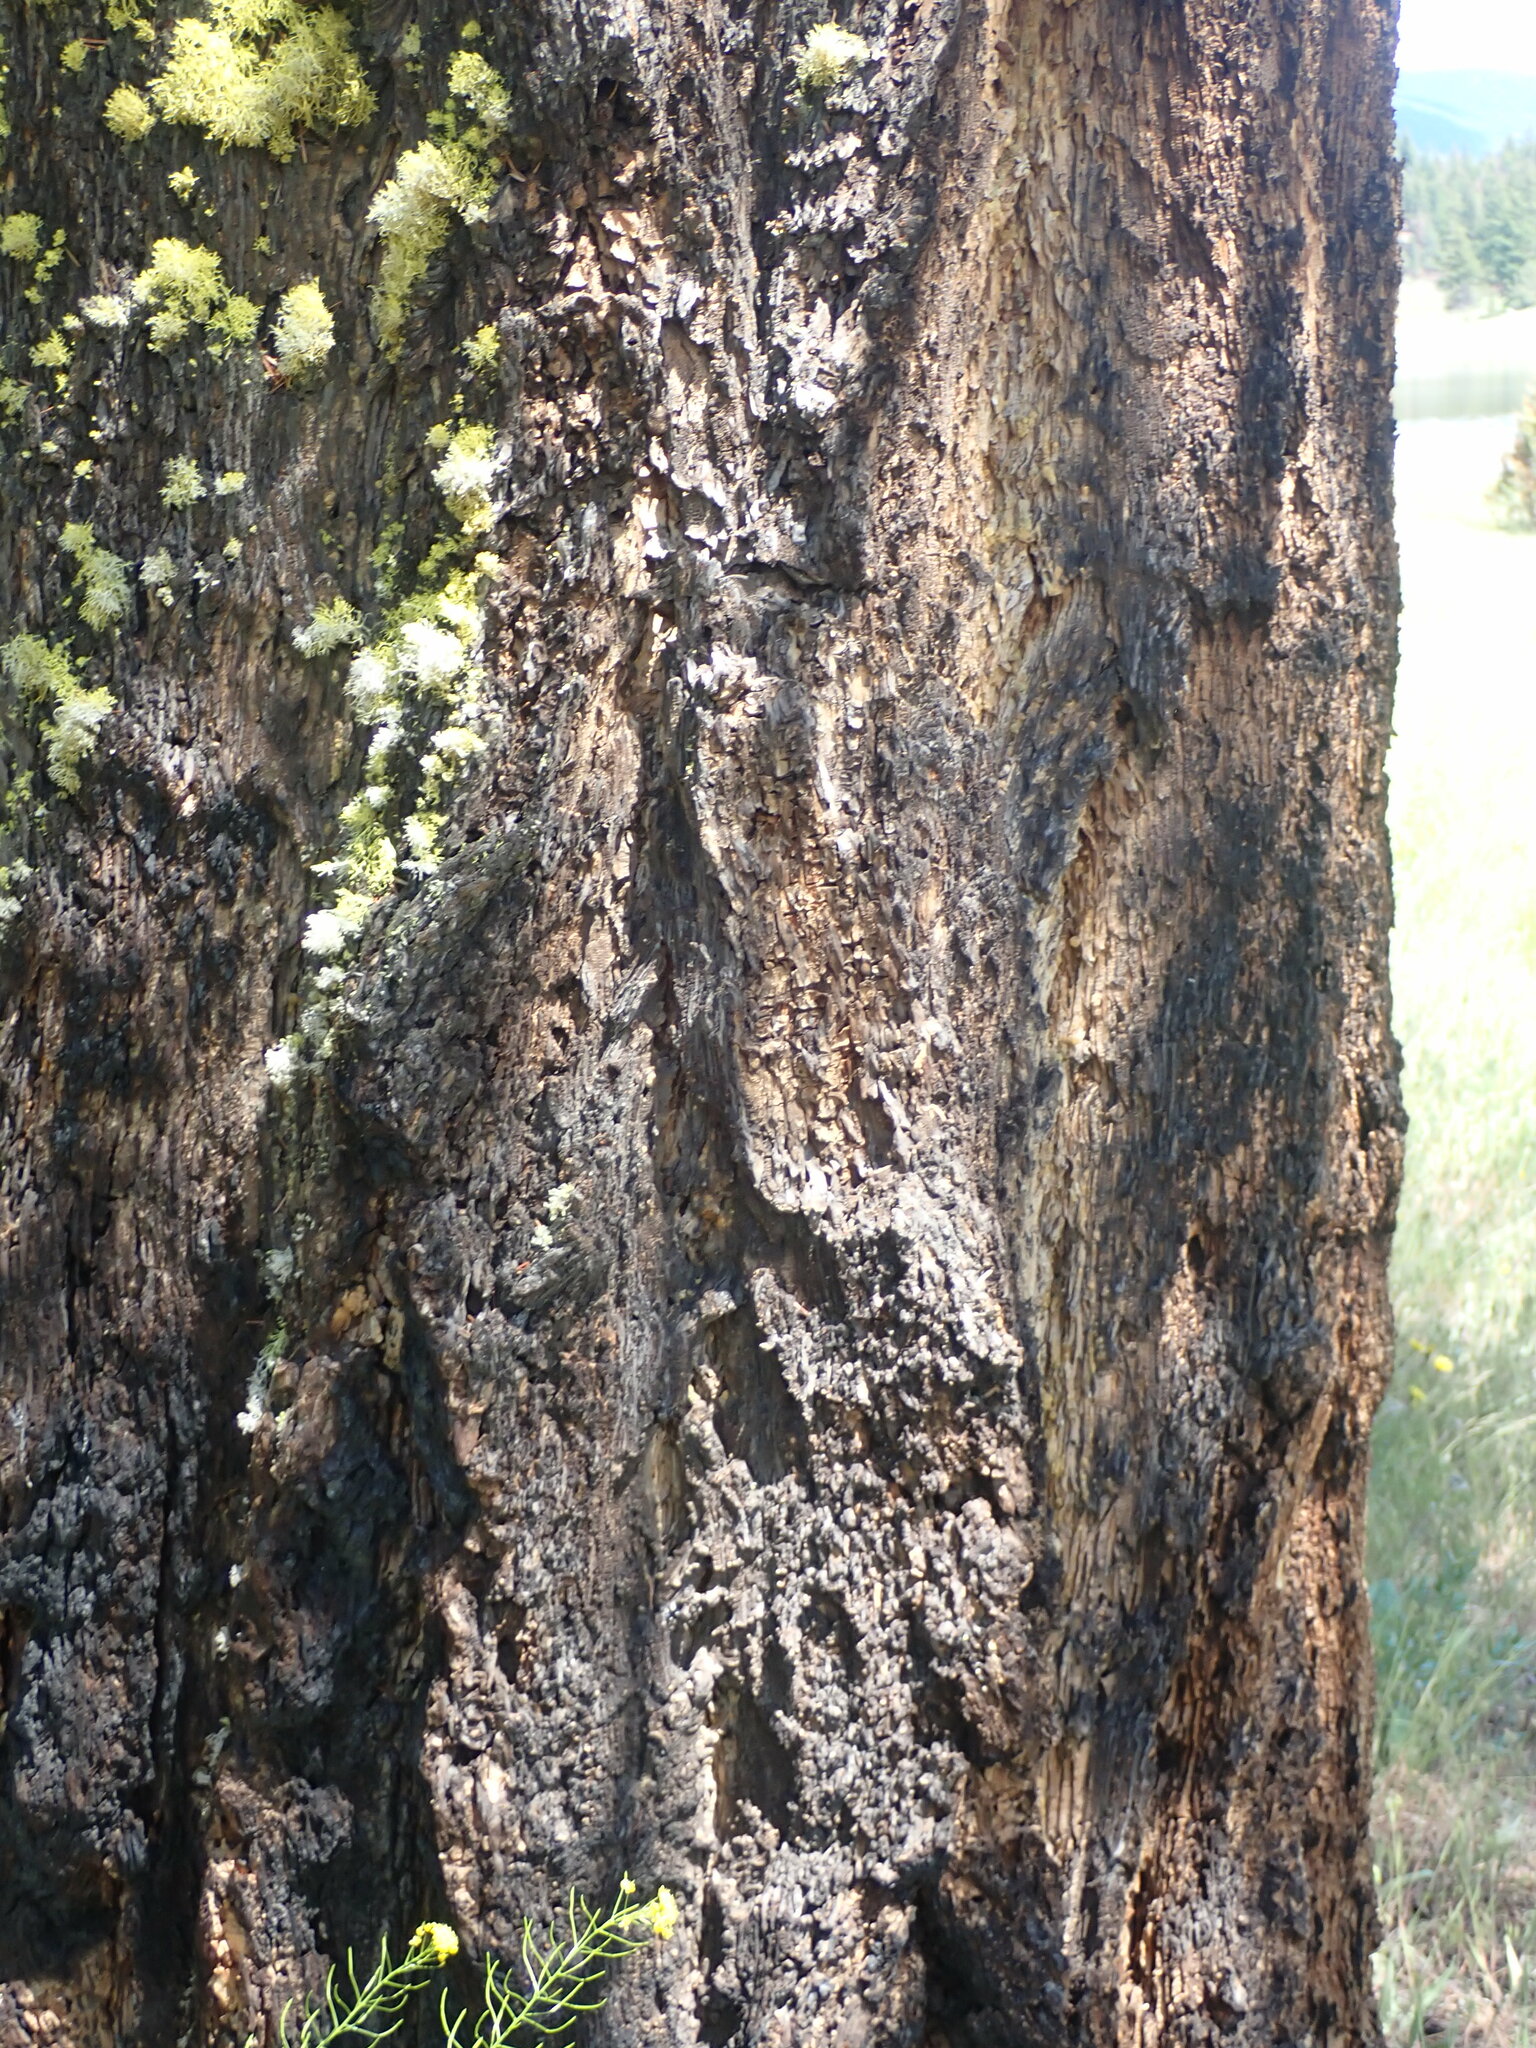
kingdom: Plantae
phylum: Tracheophyta
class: Pinopsida
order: Pinales
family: Pinaceae
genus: Pseudotsuga
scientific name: Pseudotsuga menziesii
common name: Douglas fir
